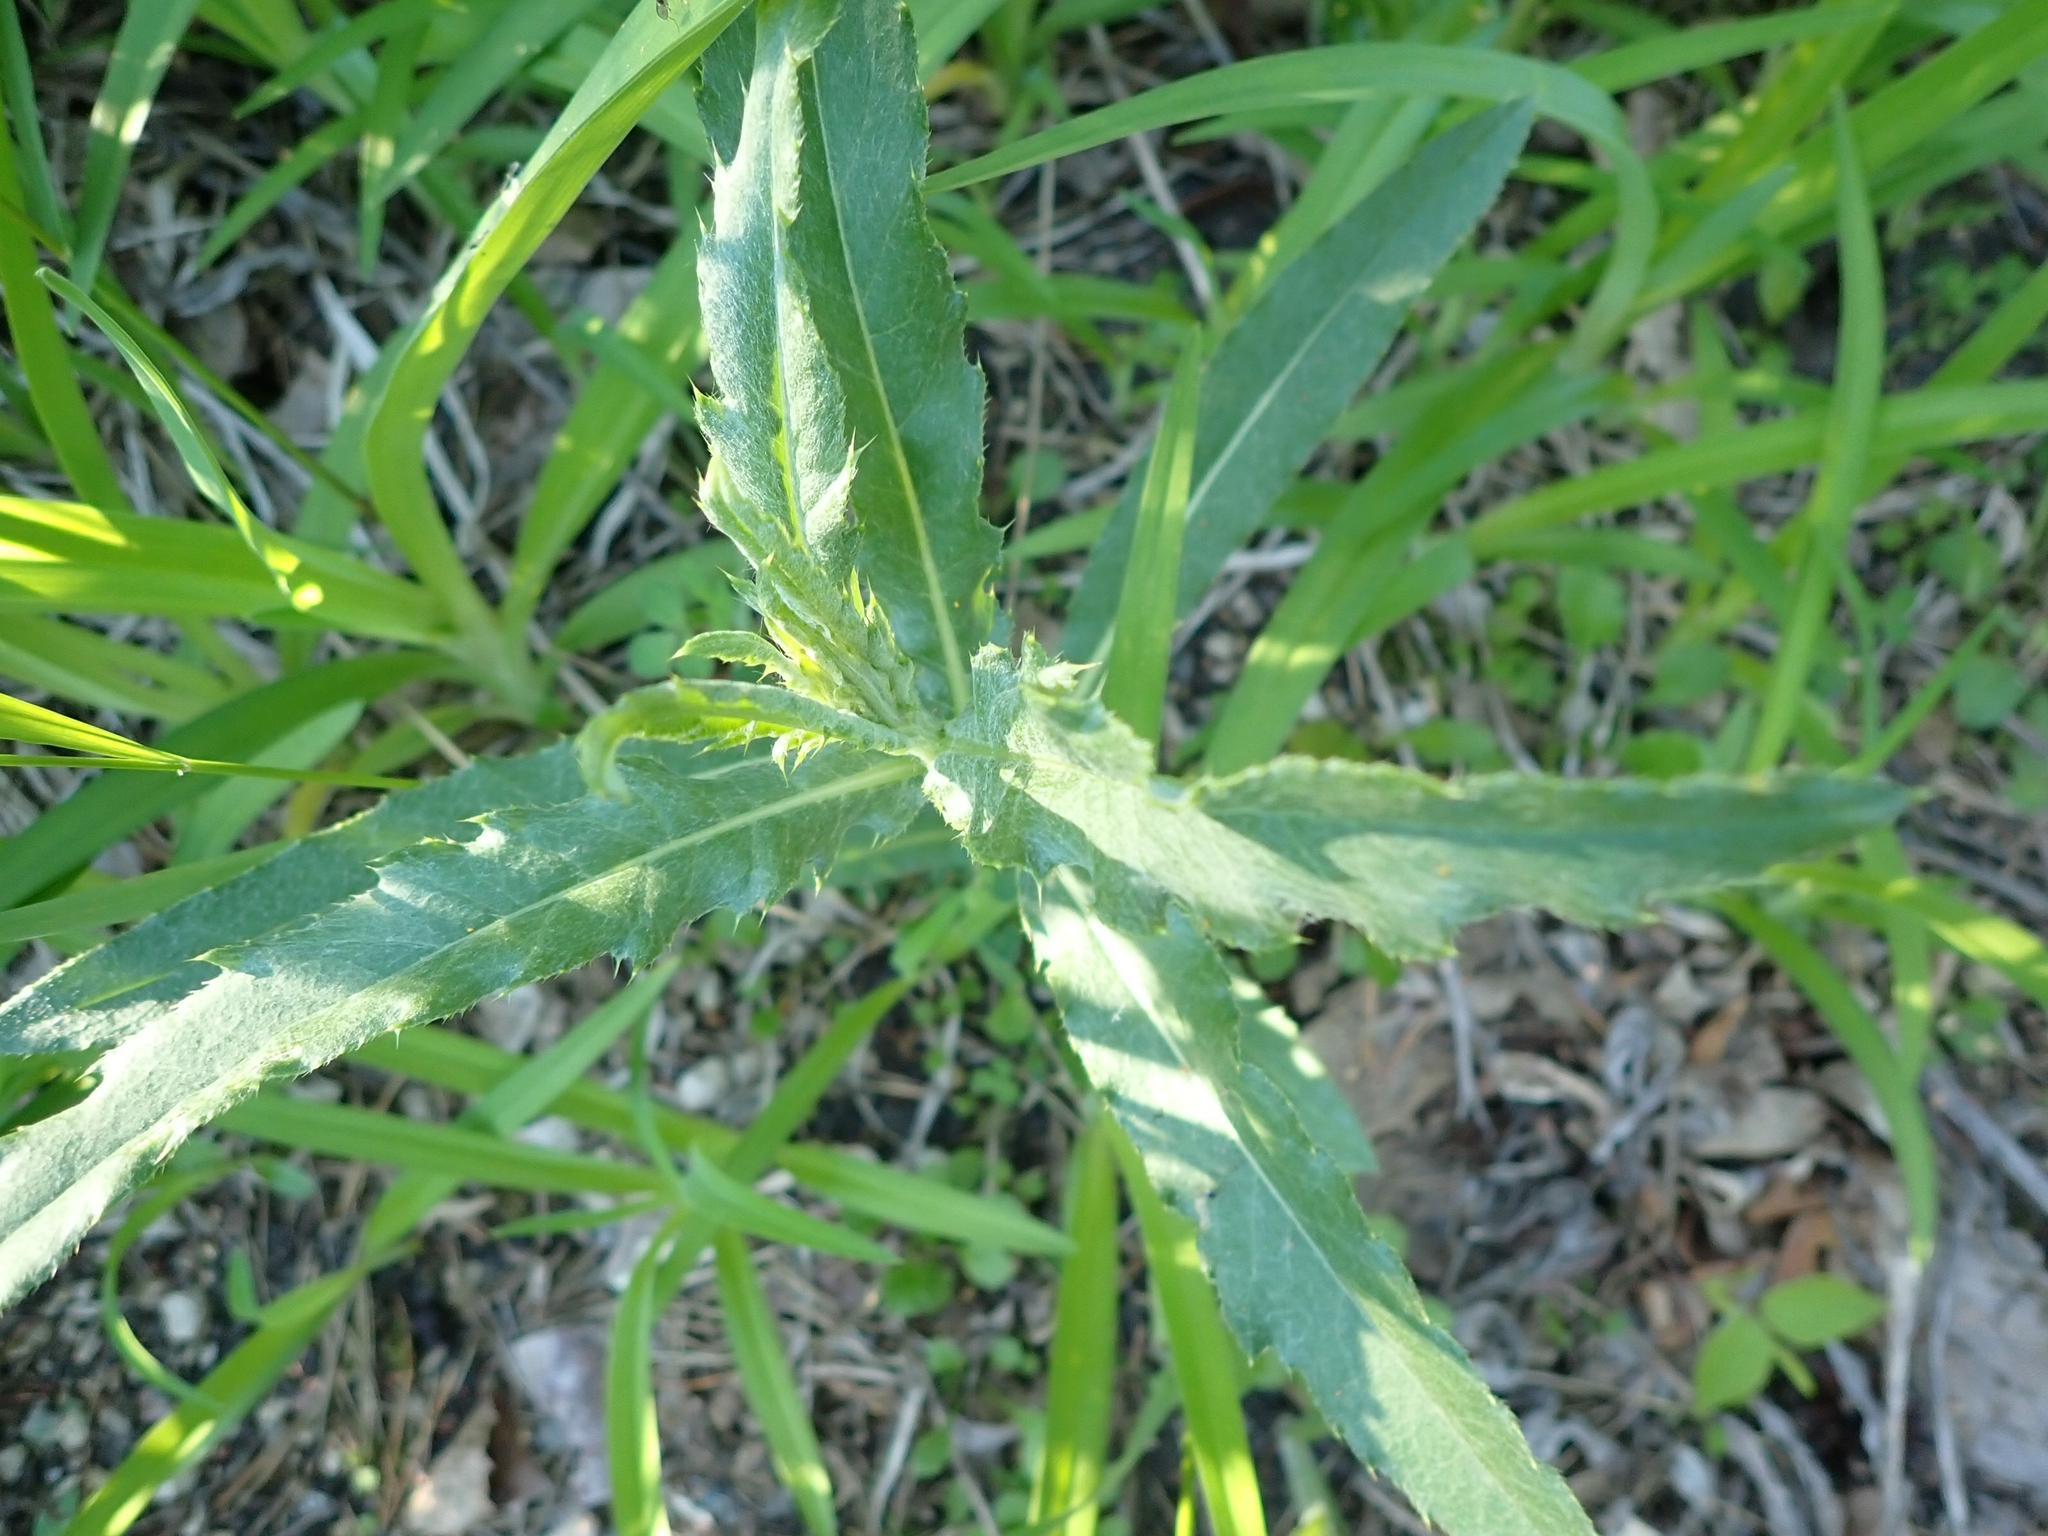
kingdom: Plantae
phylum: Tracheophyta
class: Magnoliopsida
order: Asterales
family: Asteraceae
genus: Cirsium
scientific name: Cirsium arvense
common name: Creeping thistle
